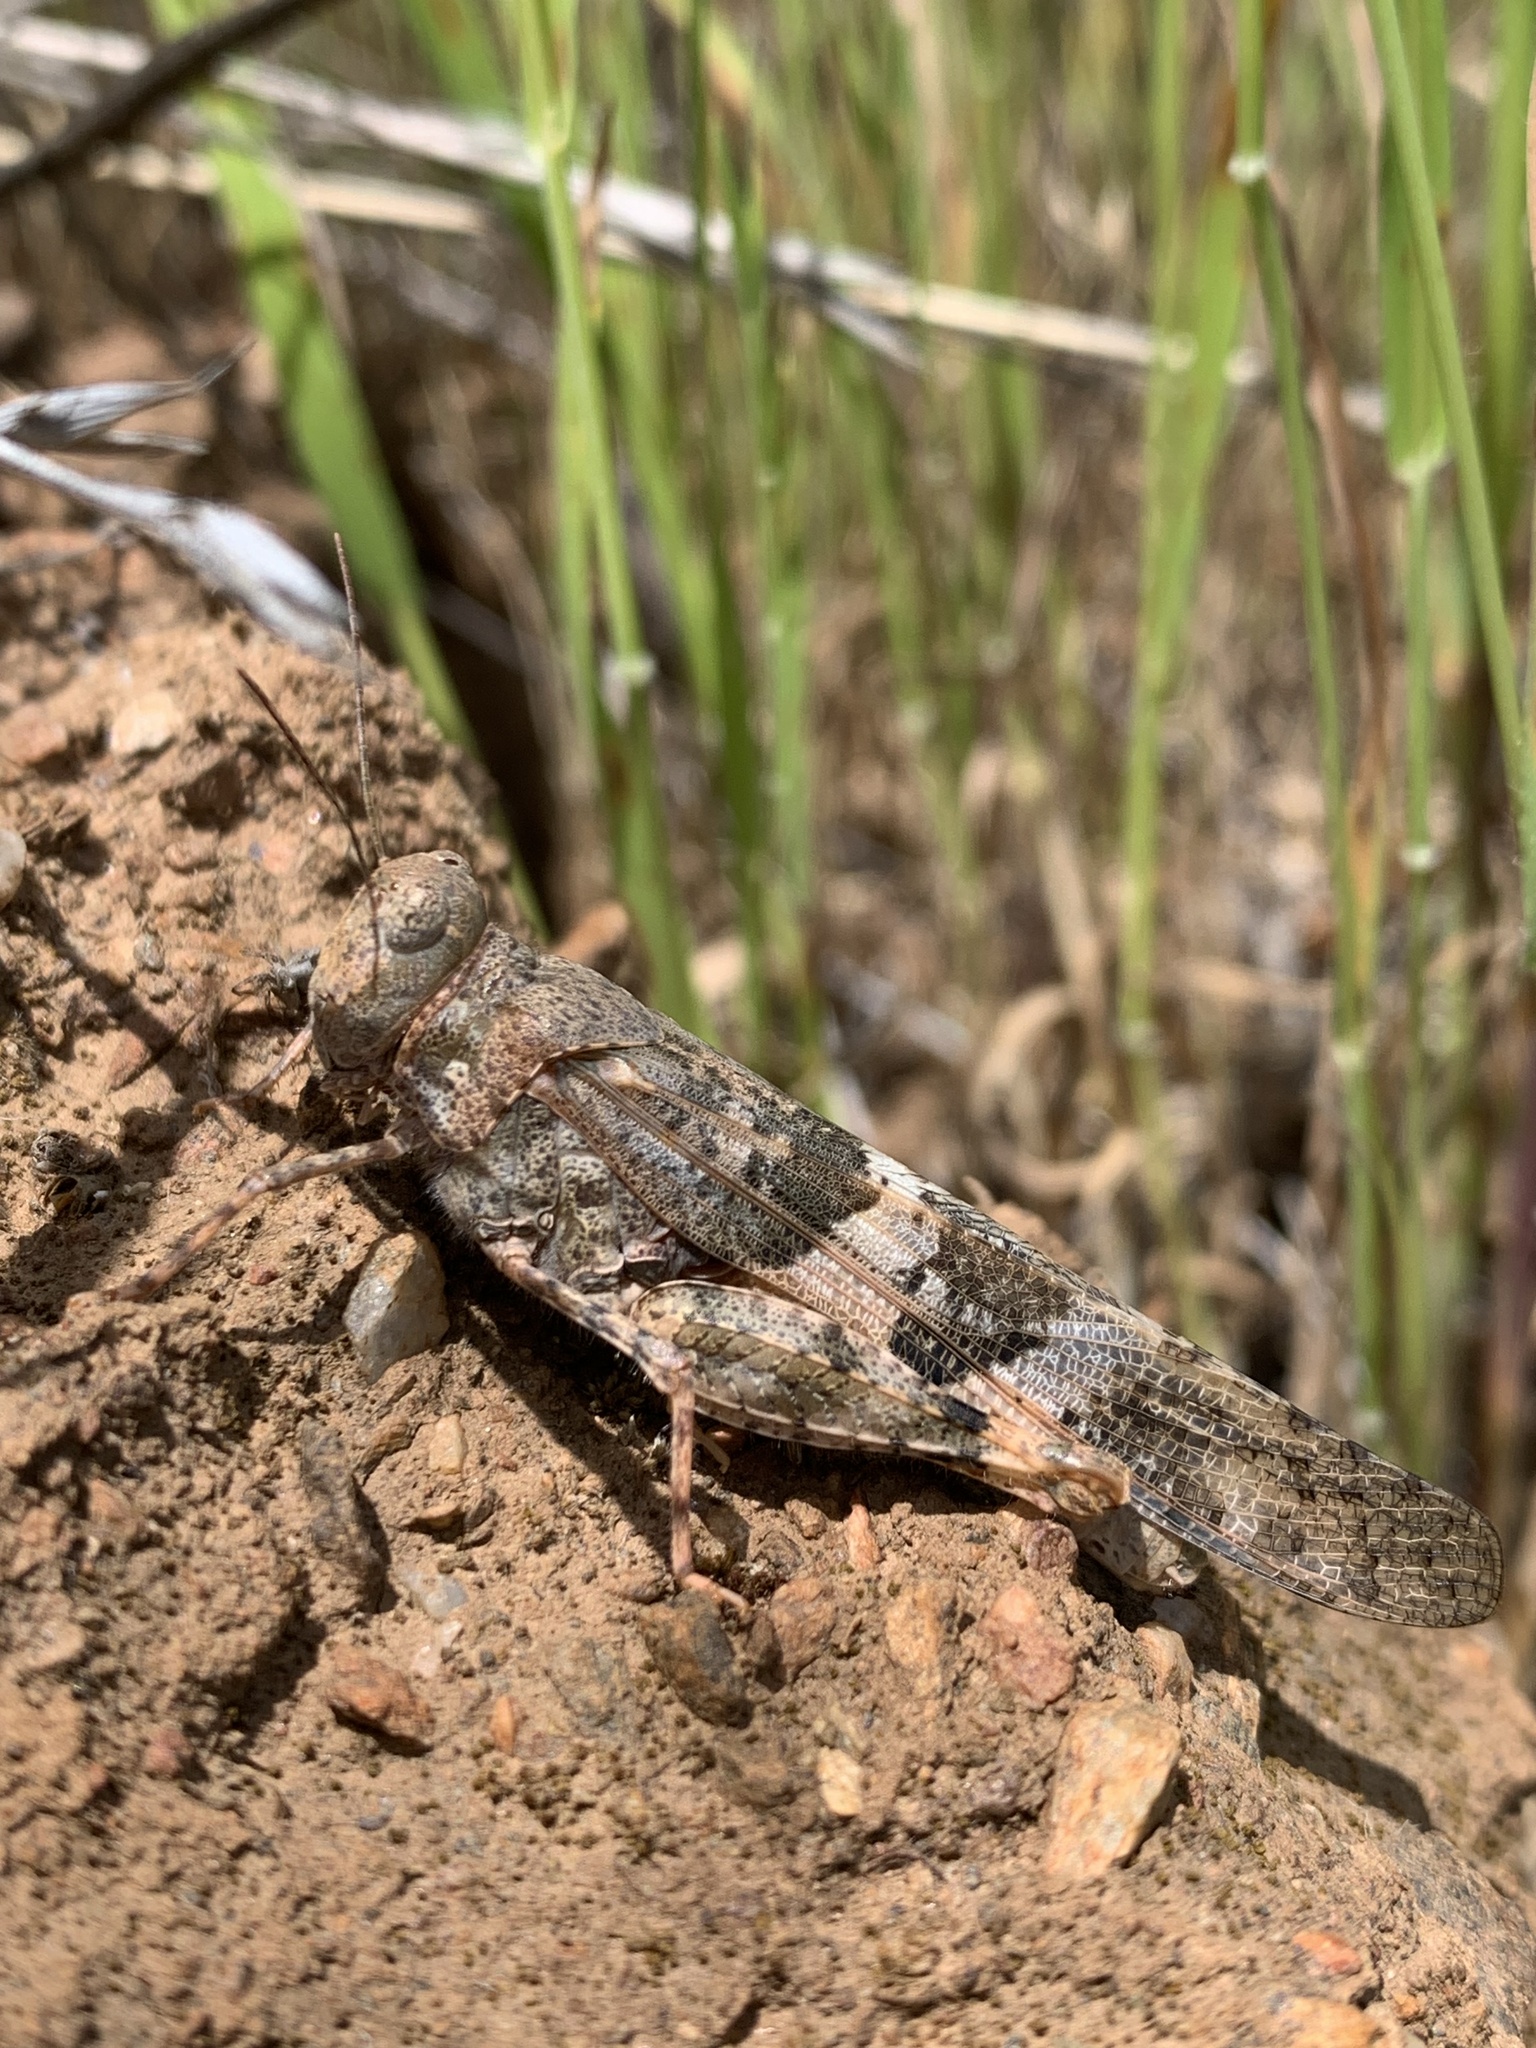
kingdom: Animalia
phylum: Arthropoda
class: Insecta
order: Orthoptera
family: Acrididae
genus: Trimerotropis
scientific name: Trimerotropis pallidipennis
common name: Pallid-winged grasshopper
